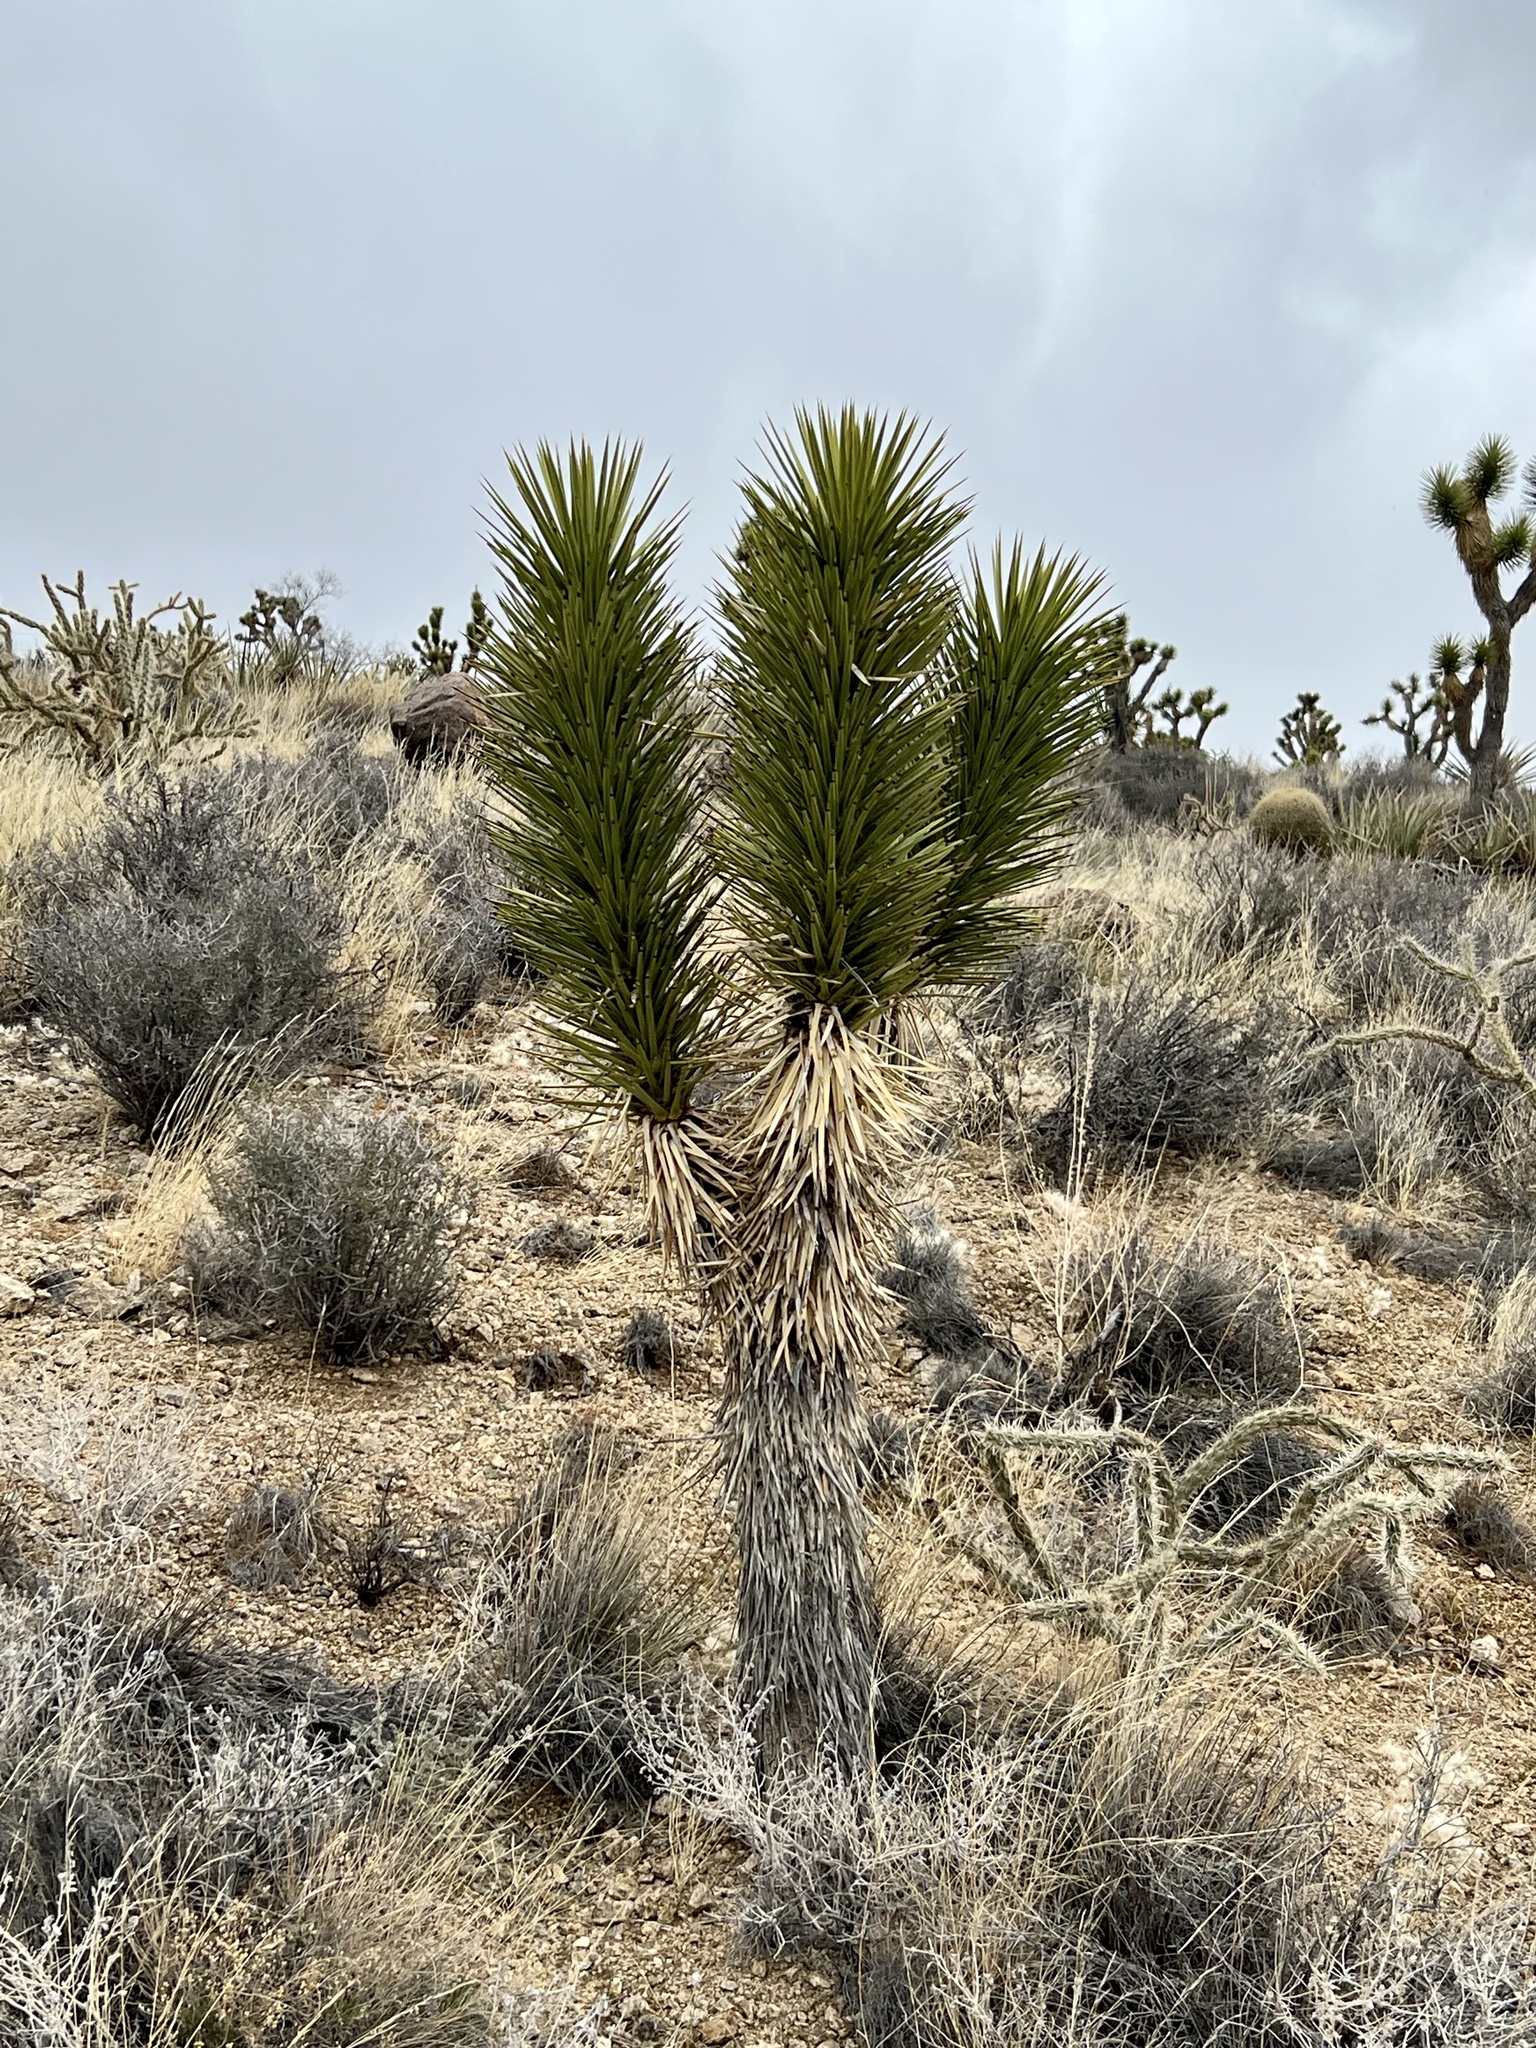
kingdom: Plantae
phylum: Tracheophyta
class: Liliopsida
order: Asparagales
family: Asparagaceae
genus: Yucca
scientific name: Yucca brevifolia
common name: Joshua tree
